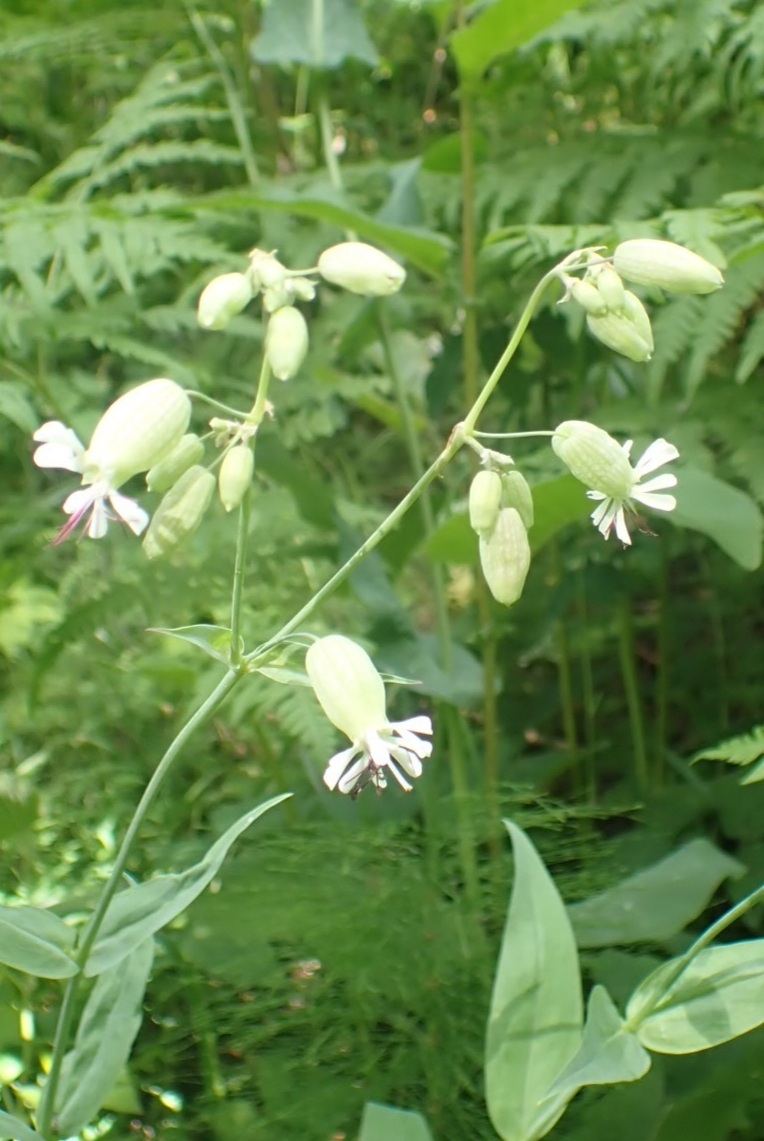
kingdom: Plantae
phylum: Tracheophyta
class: Magnoliopsida
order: Caryophyllales
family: Caryophyllaceae
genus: Silene
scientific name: Silene vulgaris
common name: Bladder campion
